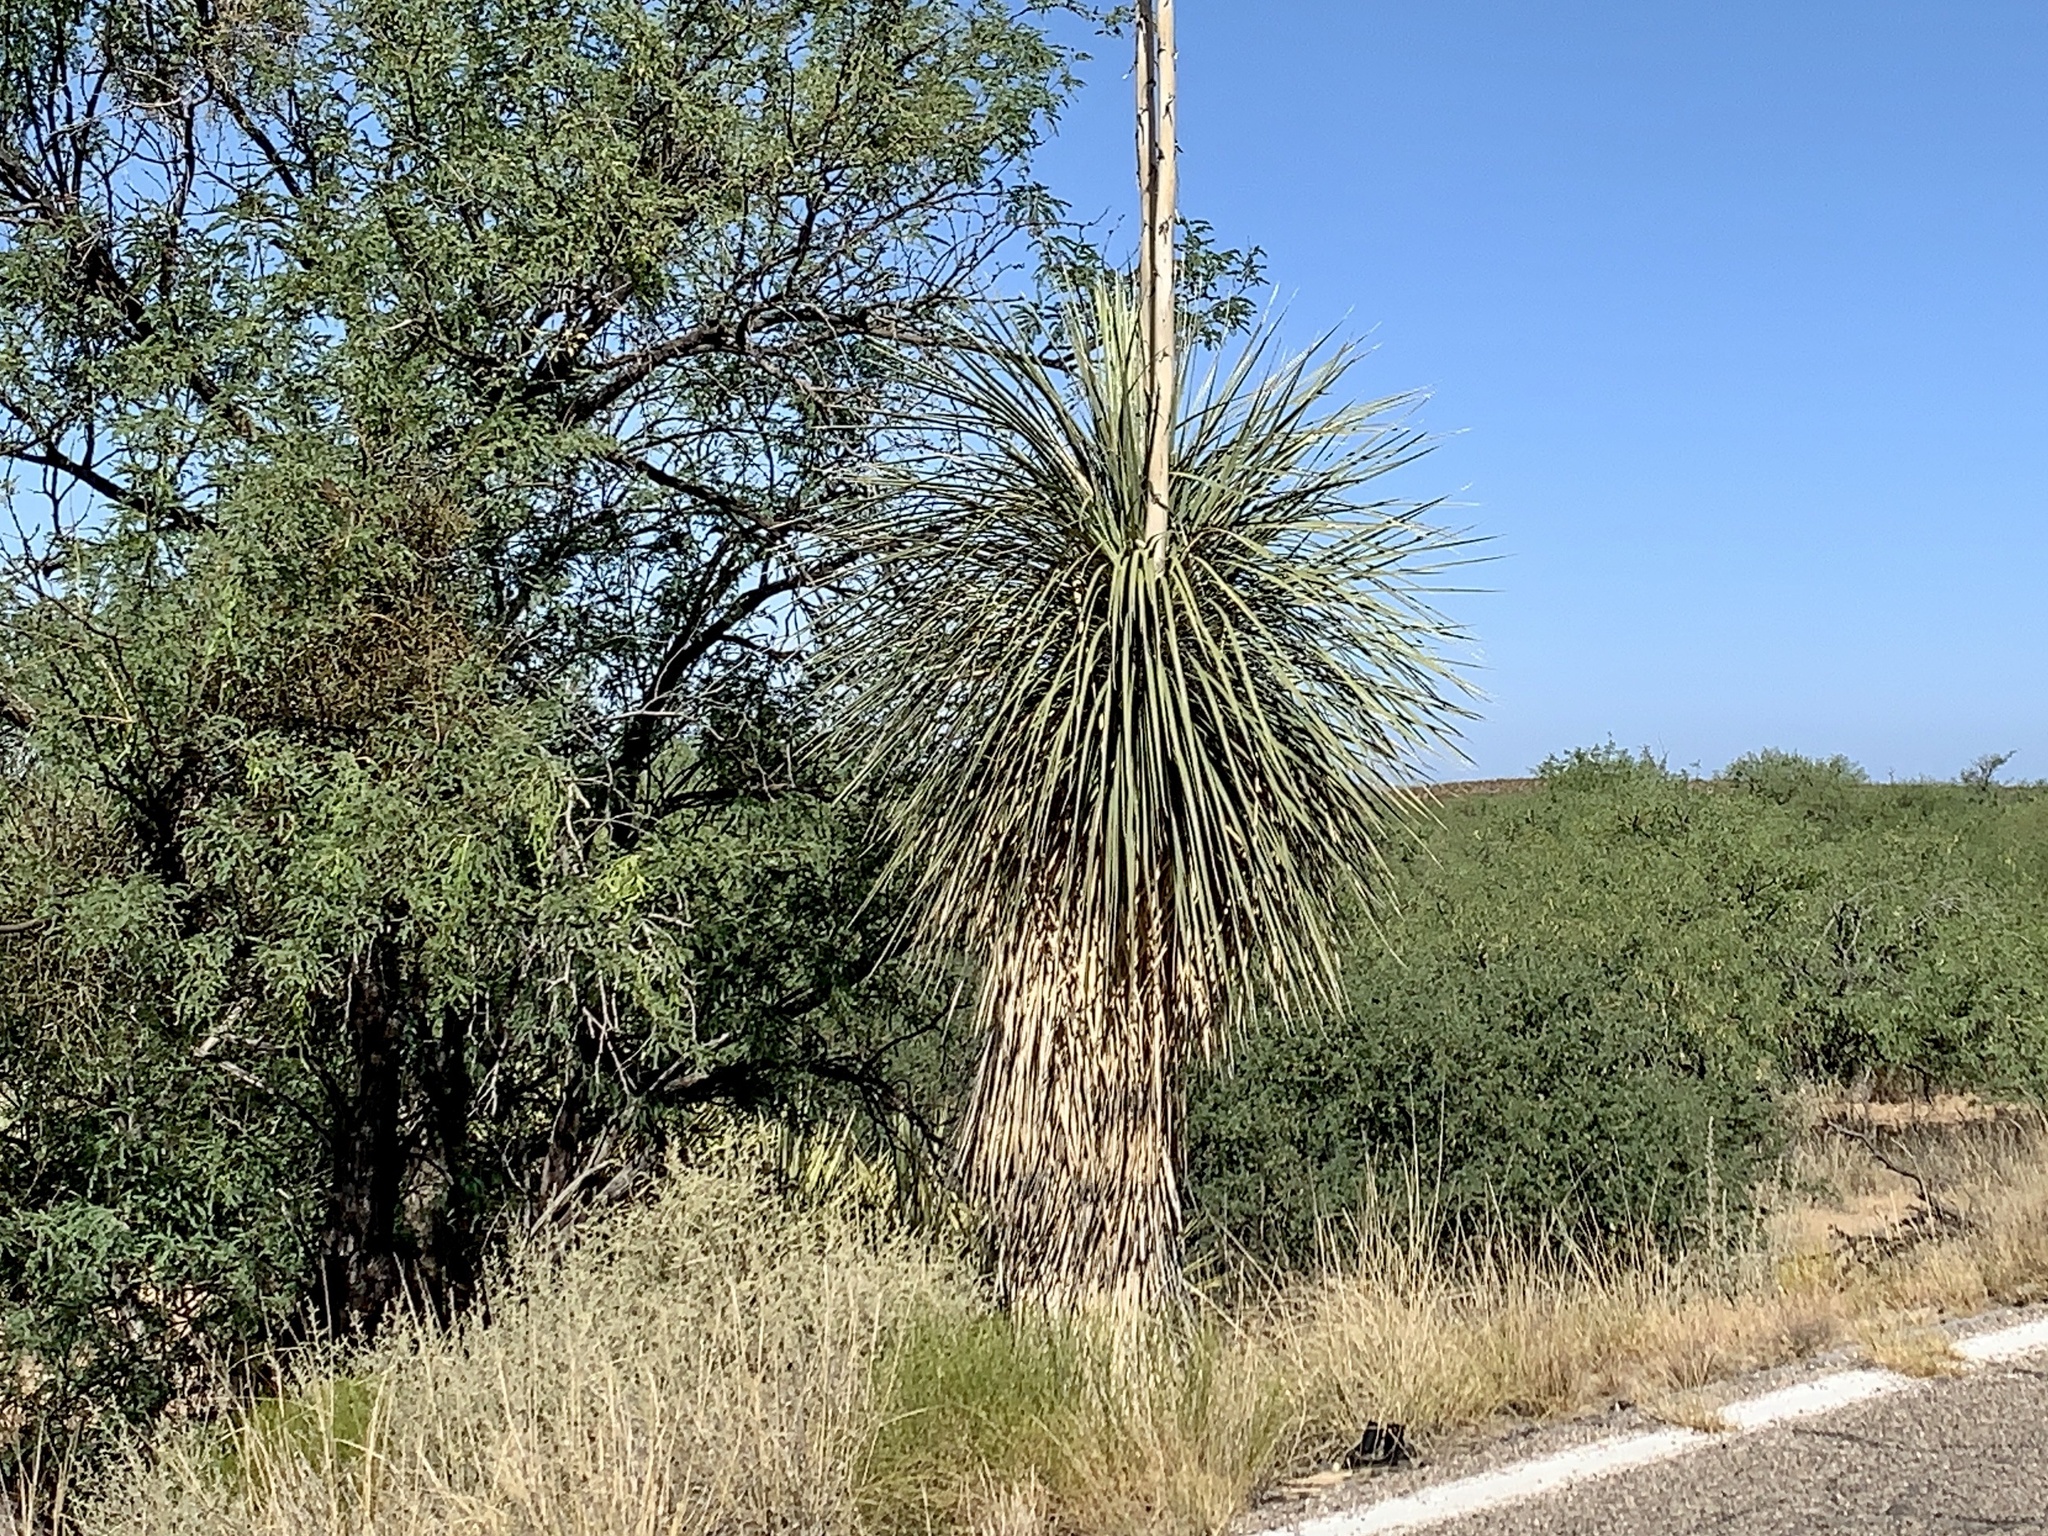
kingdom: Plantae
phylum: Tracheophyta
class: Liliopsida
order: Asparagales
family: Asparagaceae
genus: Yucca
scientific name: Yucca elata
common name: Palmella
